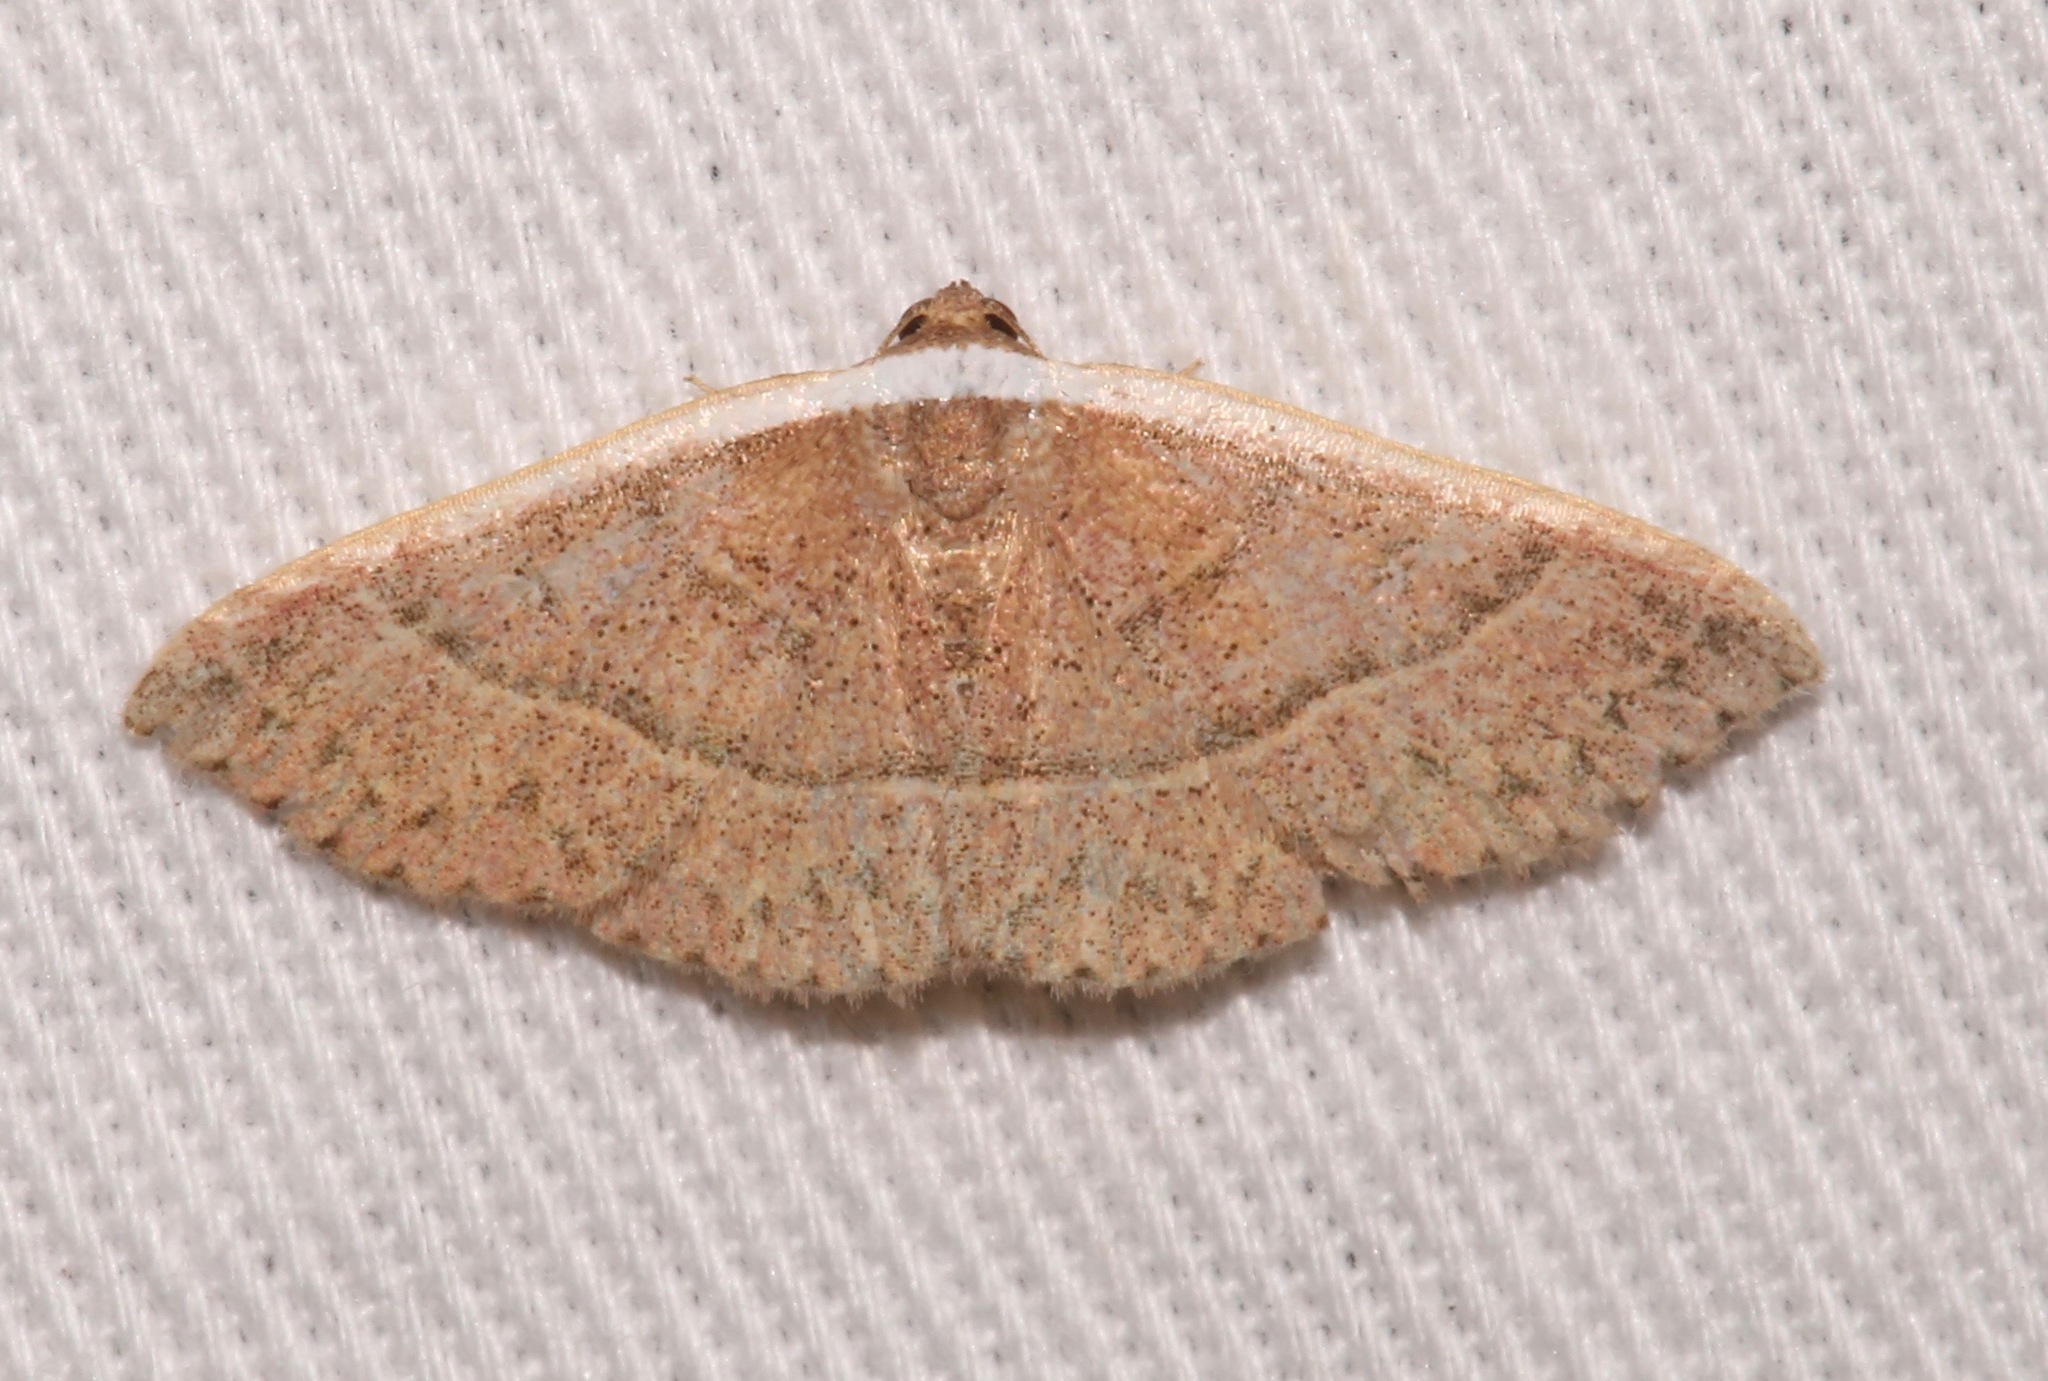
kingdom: Animalia
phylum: Arthropoda
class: Insecta
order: Lepidoptera
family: Noctuidae
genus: Oruza
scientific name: Oruza albocostata
